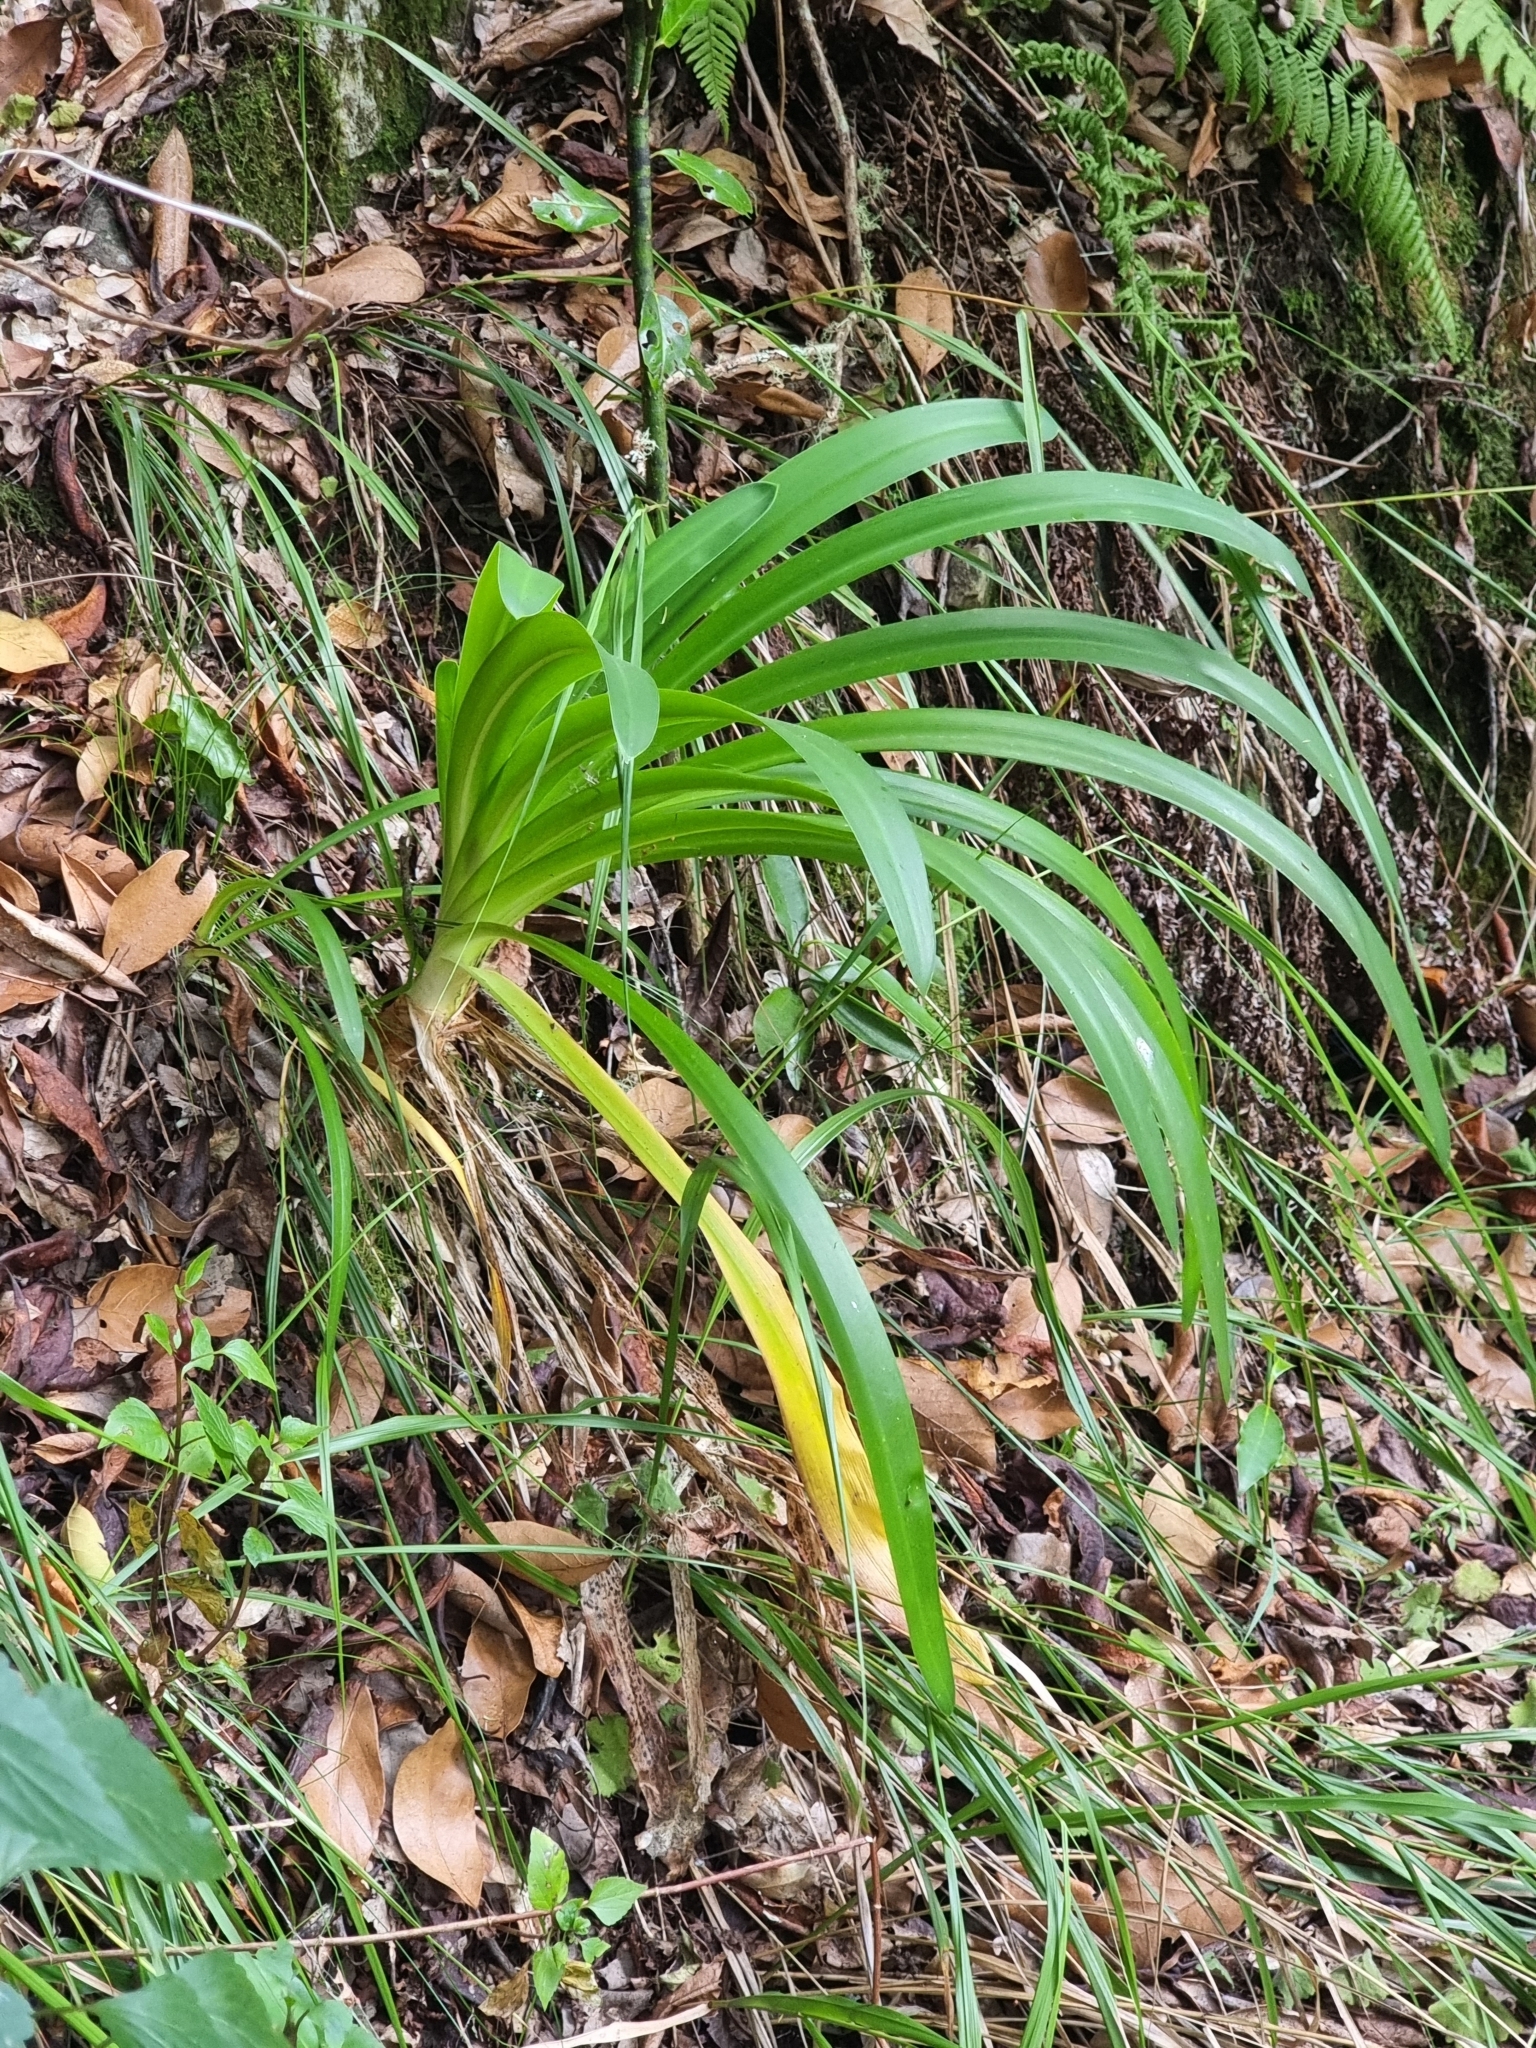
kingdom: Plantae
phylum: Tracheophyta
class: Liliopsida
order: Asparagales
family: Amaryllidaceae
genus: Agapanthus
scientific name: Agapanthus praecox
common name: African-lily
